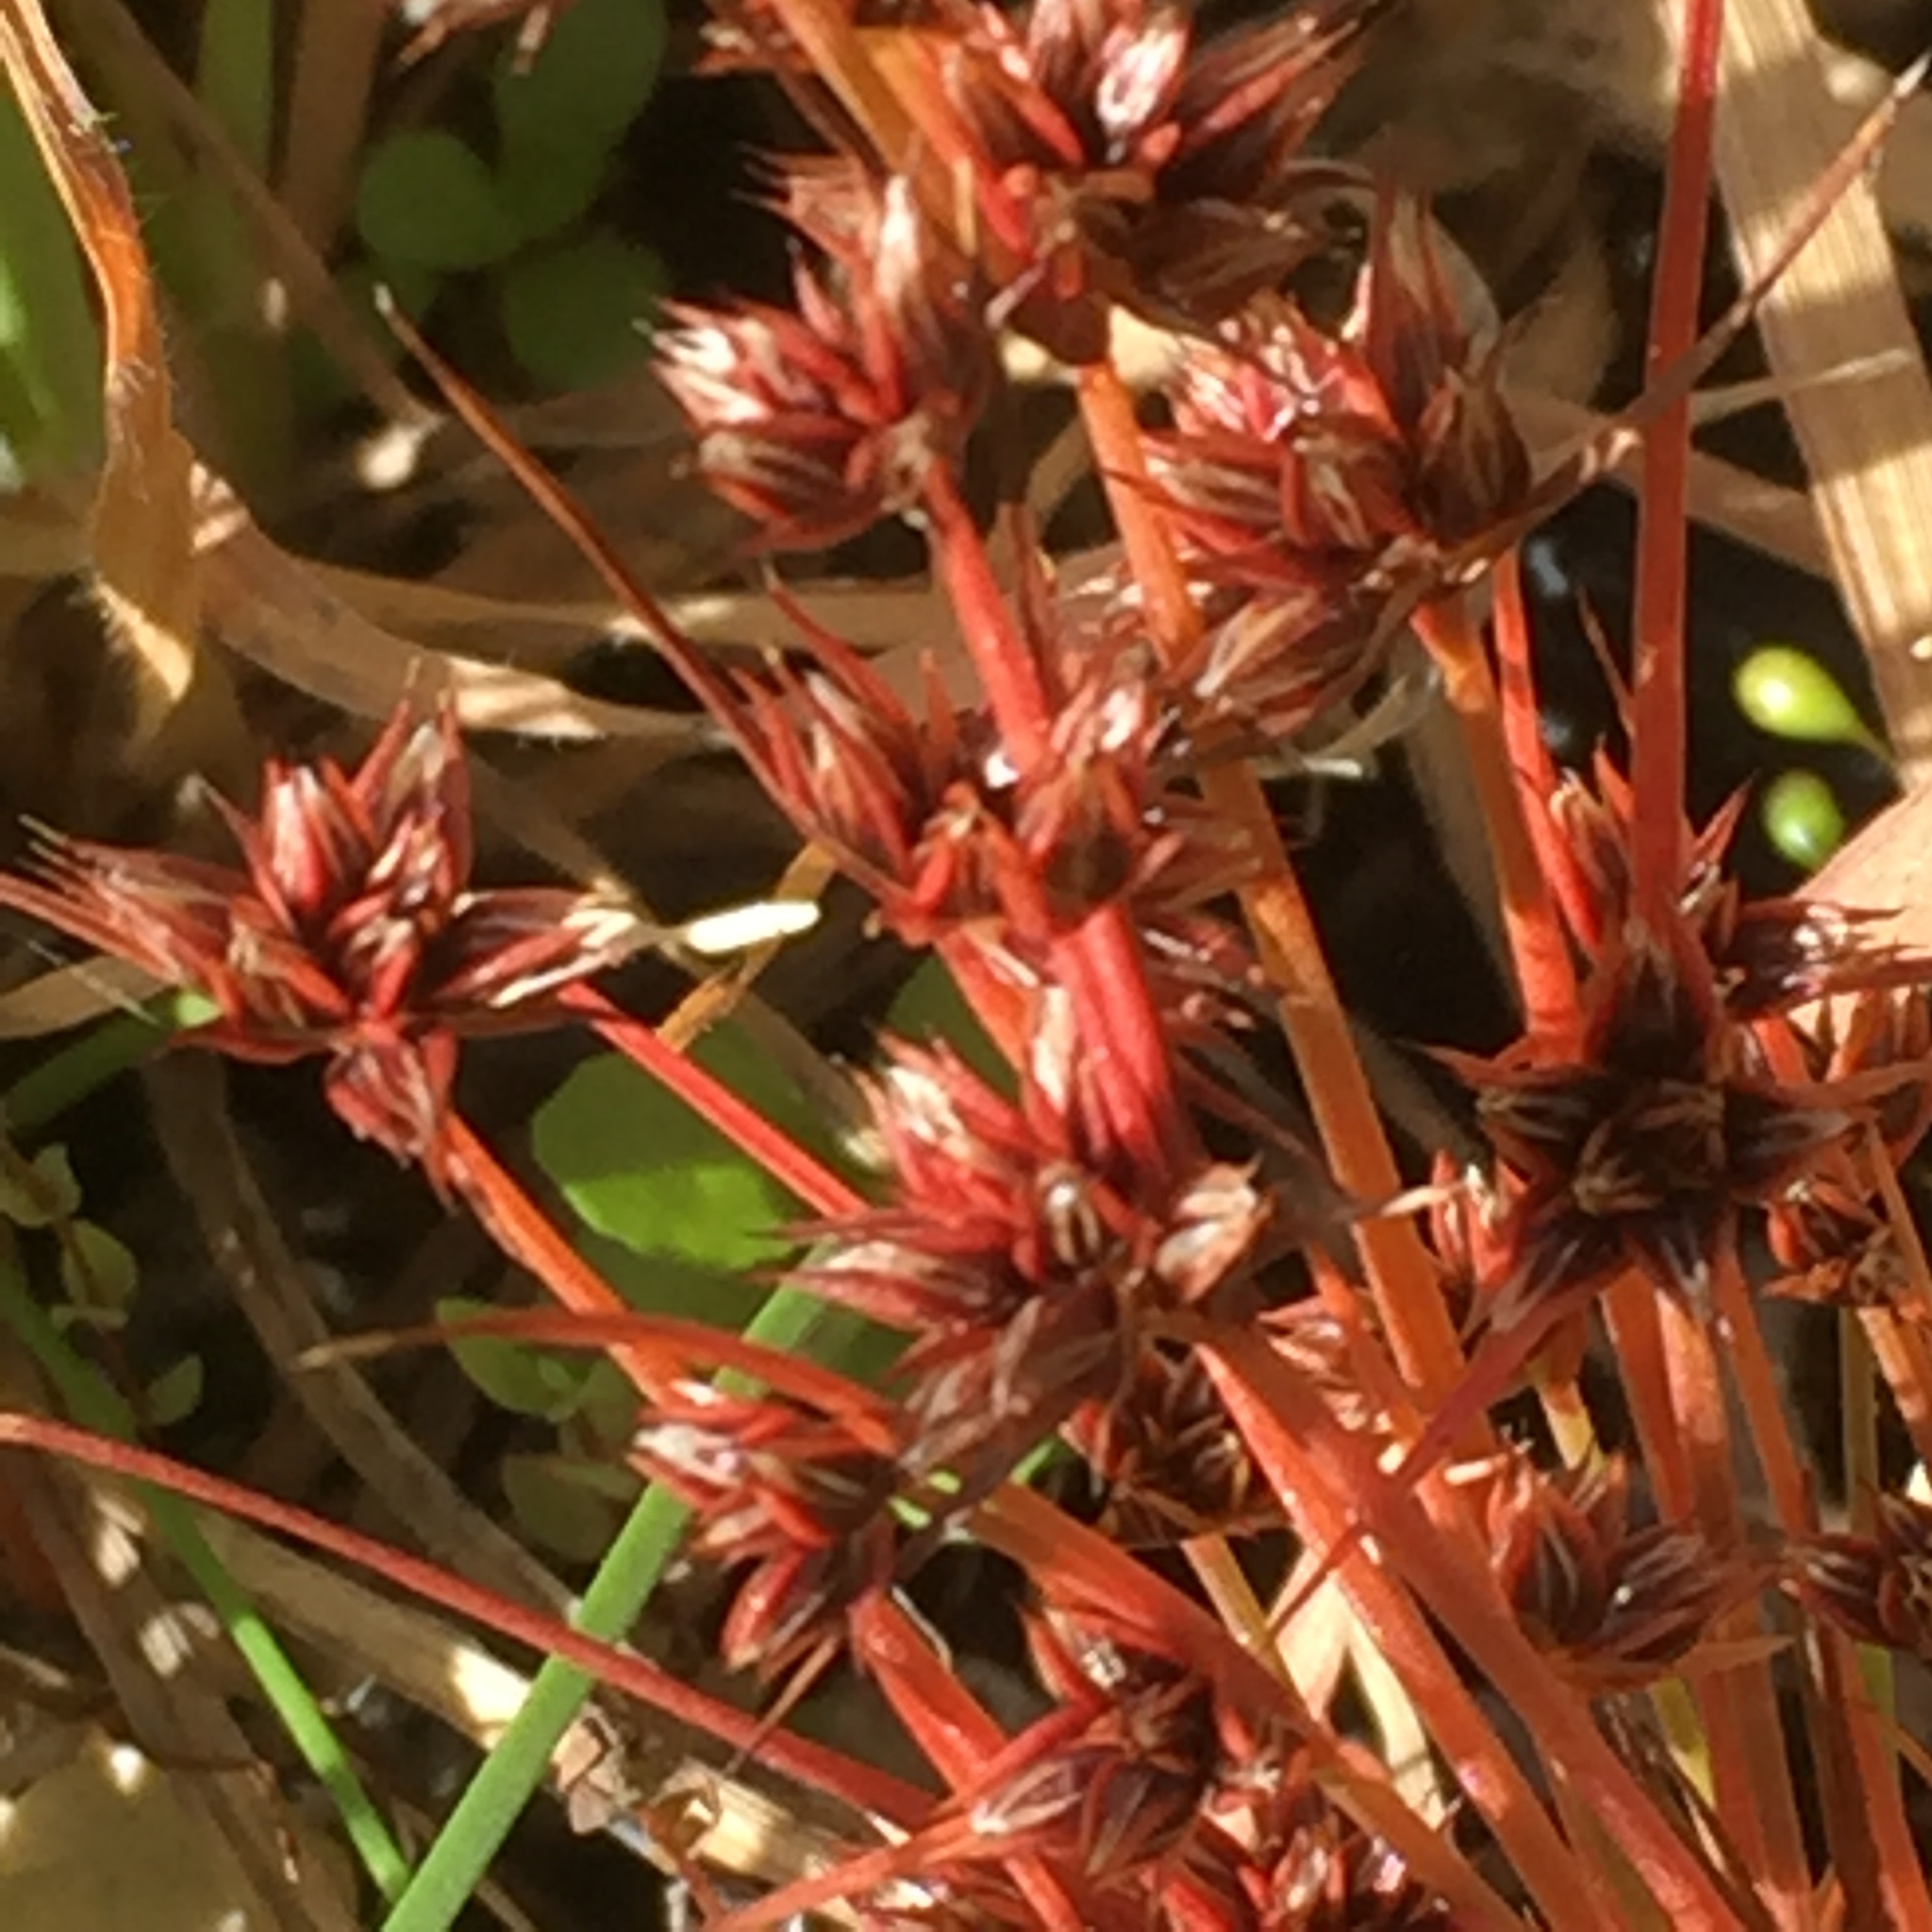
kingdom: Plantae
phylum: Tracheophyta
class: Liliopsida
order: Poales
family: Juncaceae
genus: Juncus
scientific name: Juncus capitatus
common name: Dwarf rush
